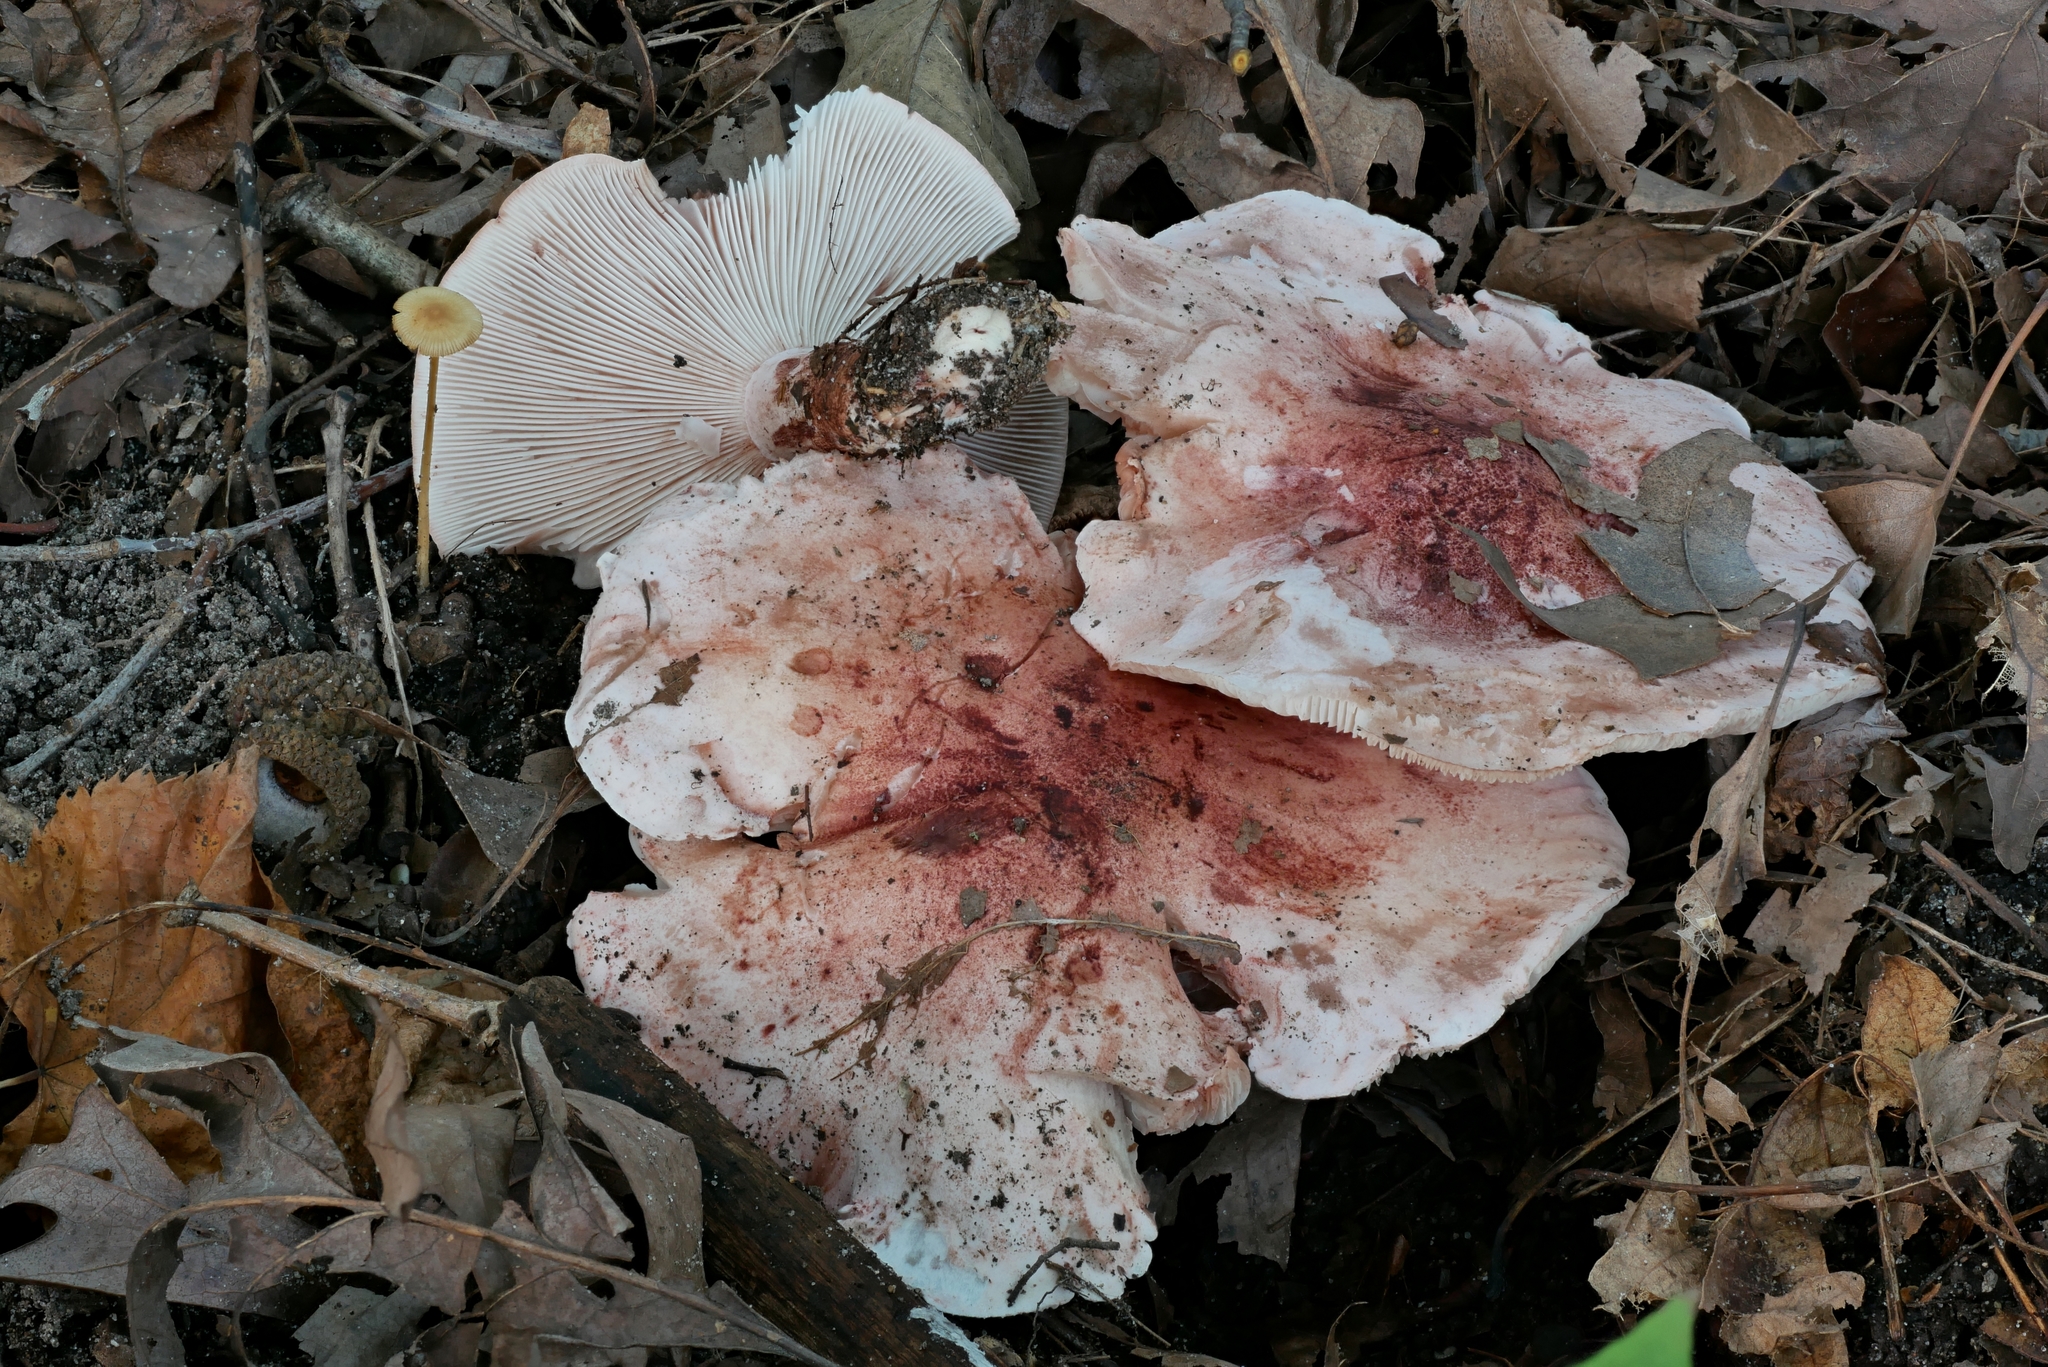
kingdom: Fungi
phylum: Basidiomycota
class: Agaricomycetes
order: Agaricales
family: Hygrophoraceae
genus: Hygrophorus
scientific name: Hygrophorus russula
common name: Pinkmottle woodwax
